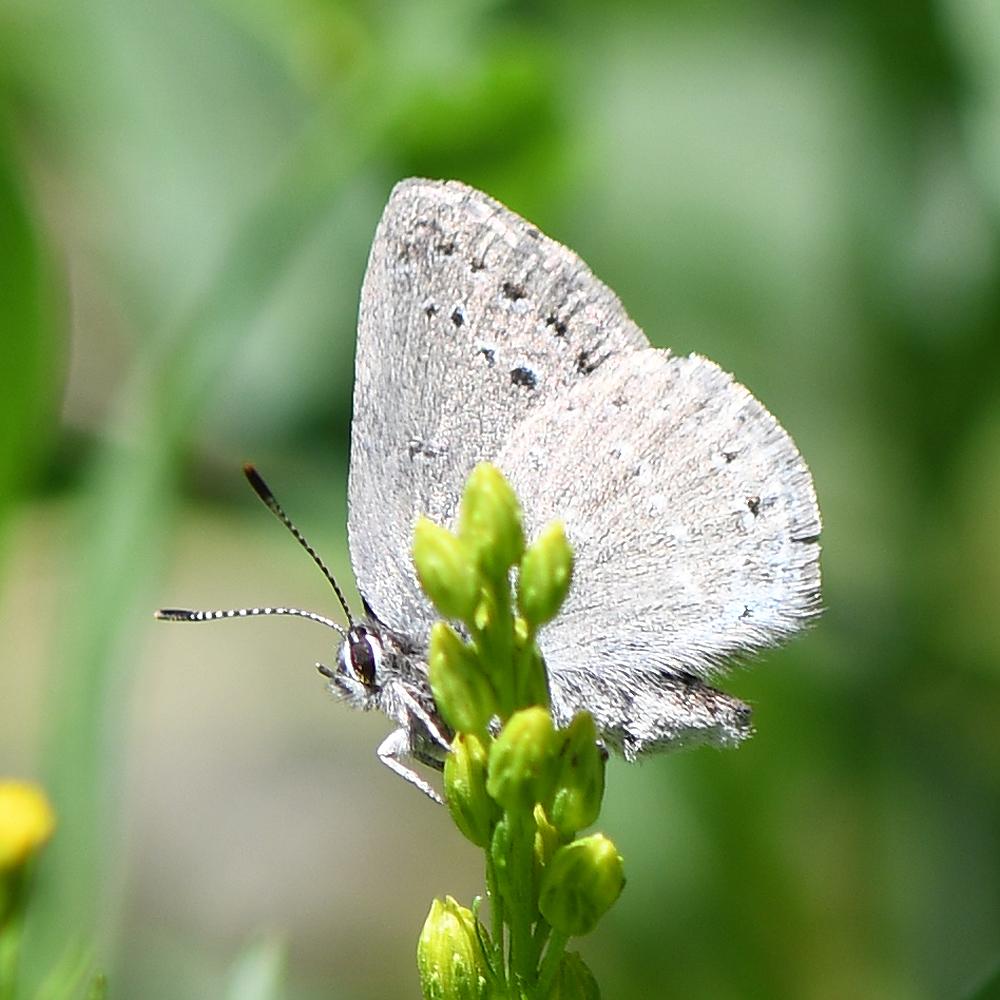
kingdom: Animalia
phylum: Arthropoda
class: Insecta
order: Lepidoptera
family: Lycaenidae
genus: Satyrium
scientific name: Satyrium fuliginosa
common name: Western sooty hairstreak
